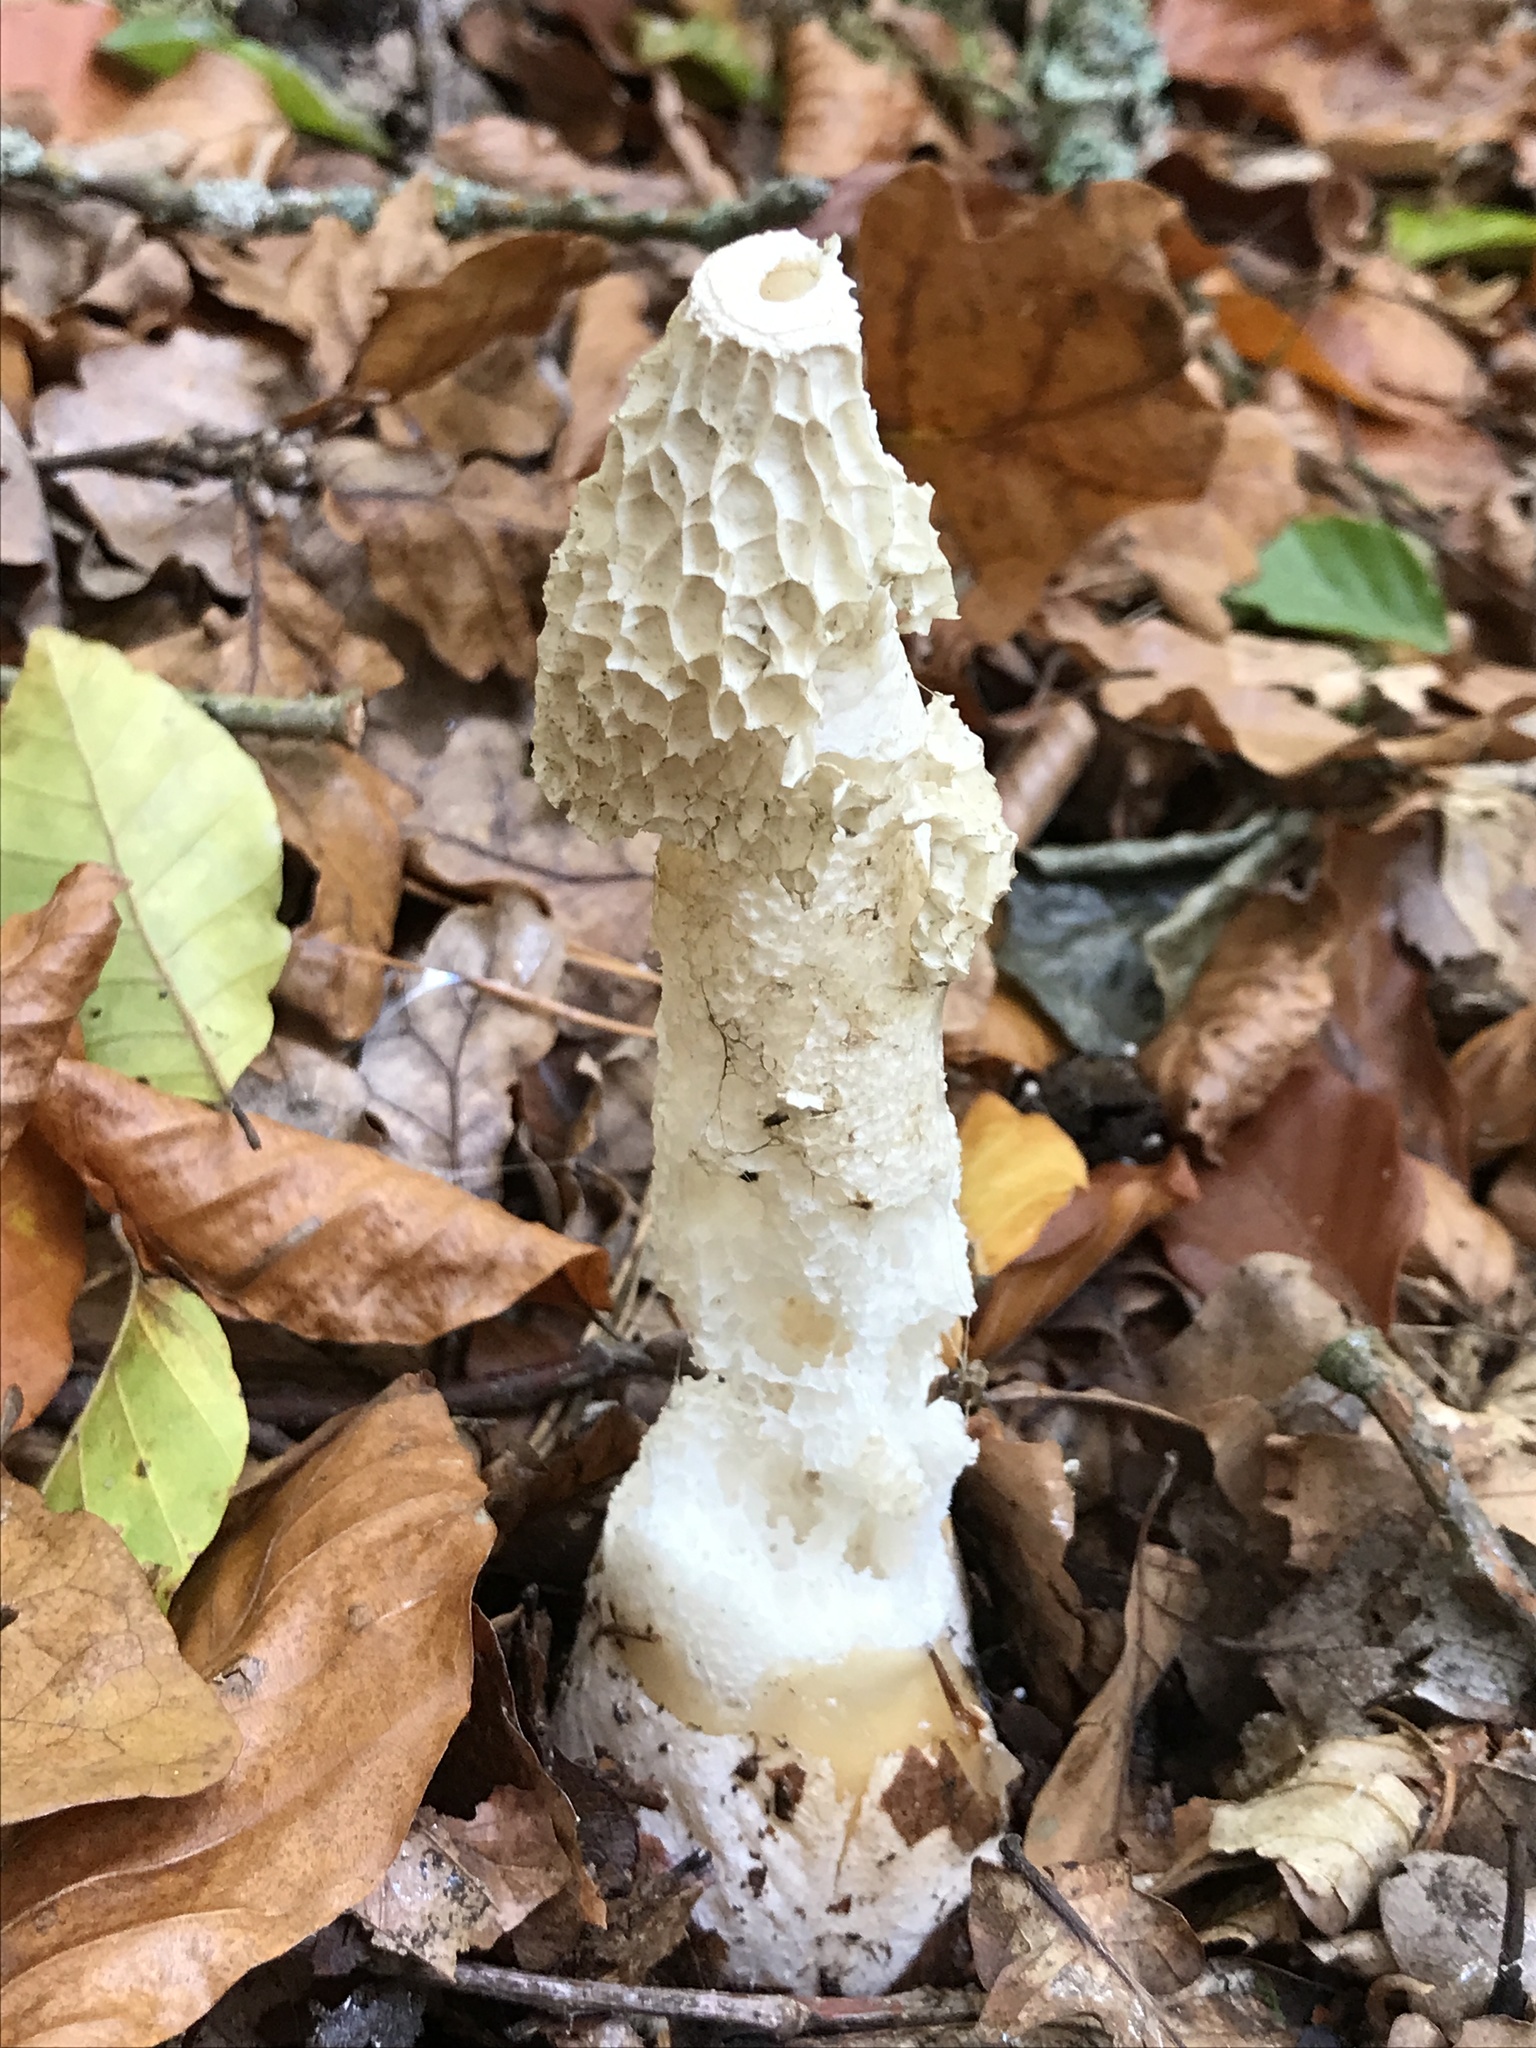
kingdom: Fungi
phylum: Basidiomycota
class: Agaricomycetes
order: Phallales
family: Phallaceae
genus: Phallus
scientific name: Phallus impudicus
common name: Common stinkhorn
